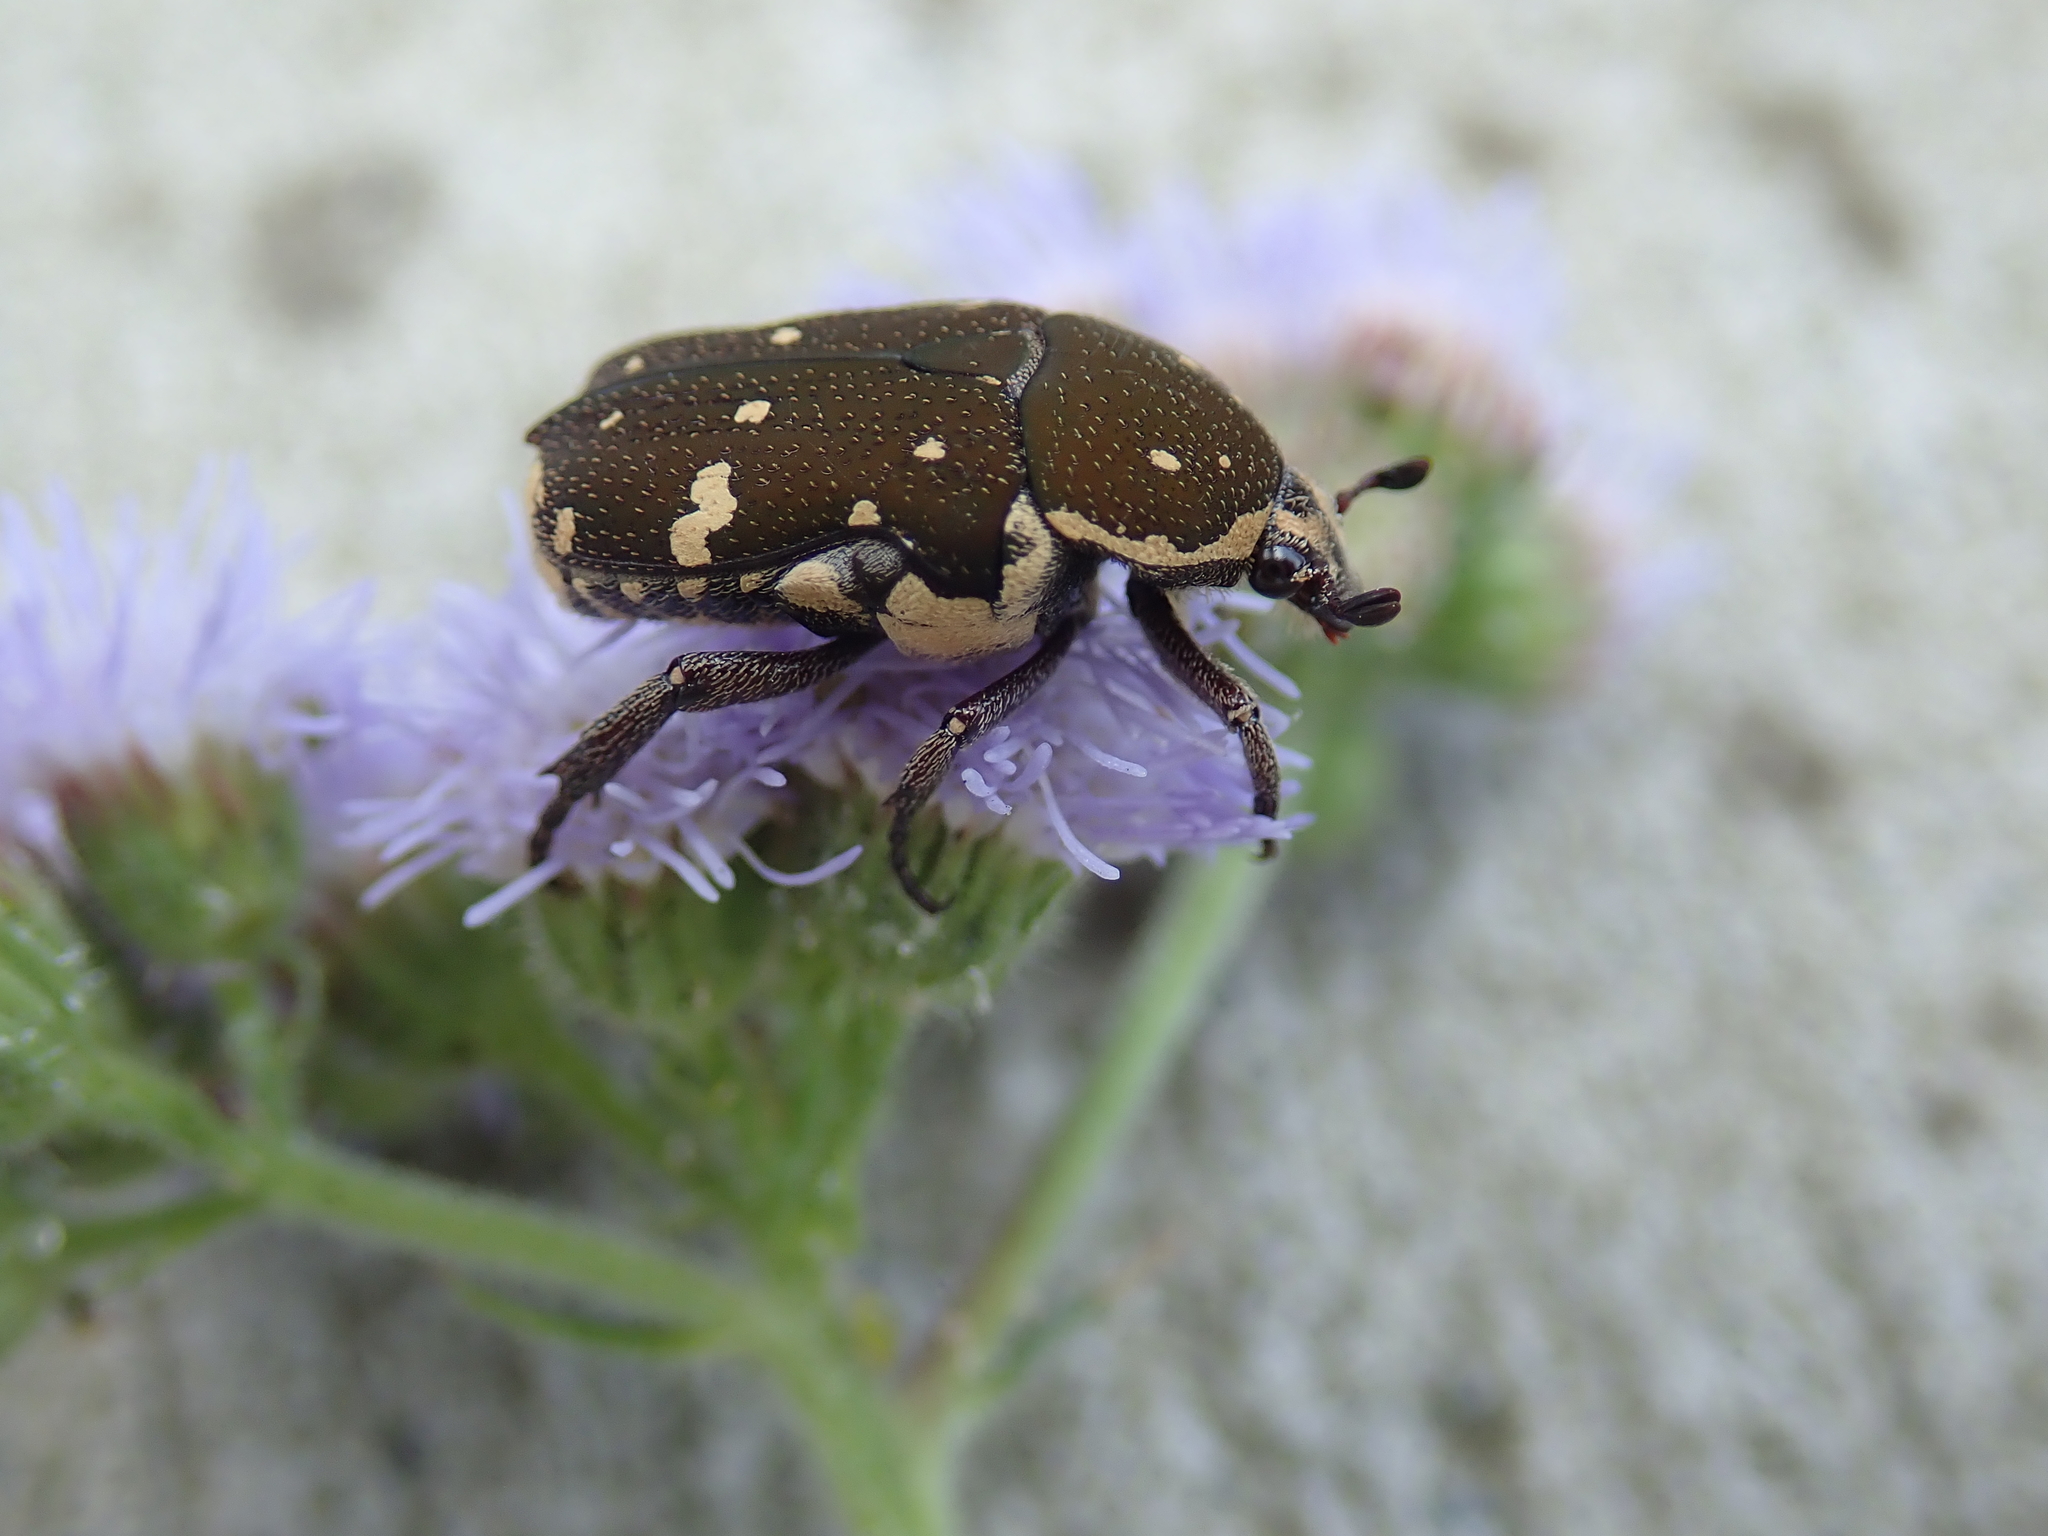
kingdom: Animalia
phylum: Arthropoda
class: Insecta
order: Coleoptera
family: Scarabaeidae
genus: Glycyphana
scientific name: Glycyphana stolata
